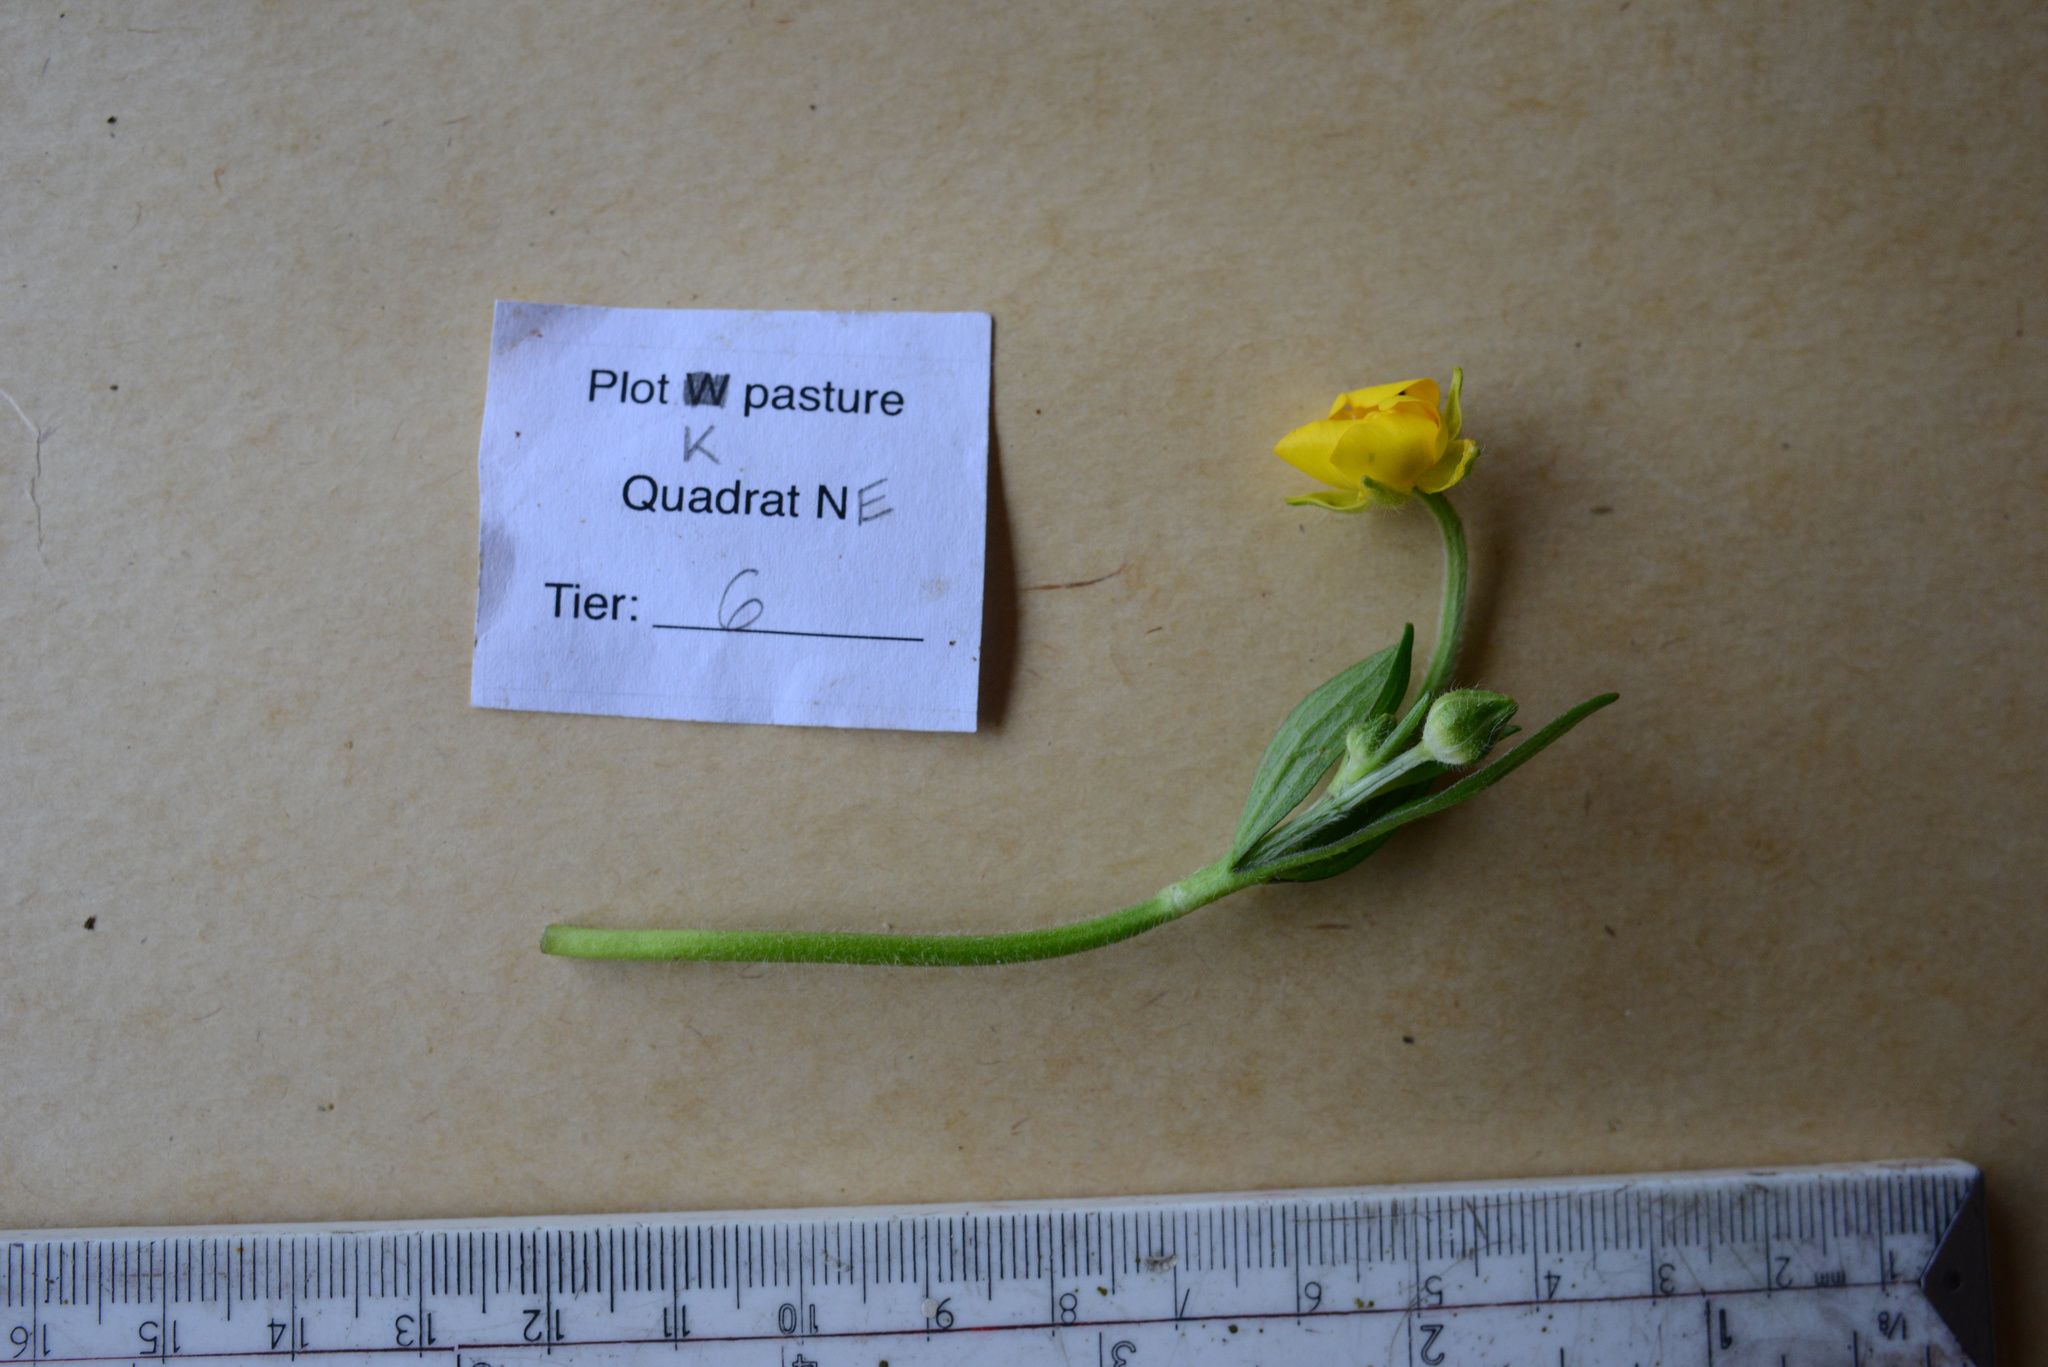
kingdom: Plantae
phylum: Tracheophyta
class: Magnoliopsida
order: Ranunculales
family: Ranunculaceae
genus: Ranunculus
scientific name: Ranunculus repens
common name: Creeping buttercup
